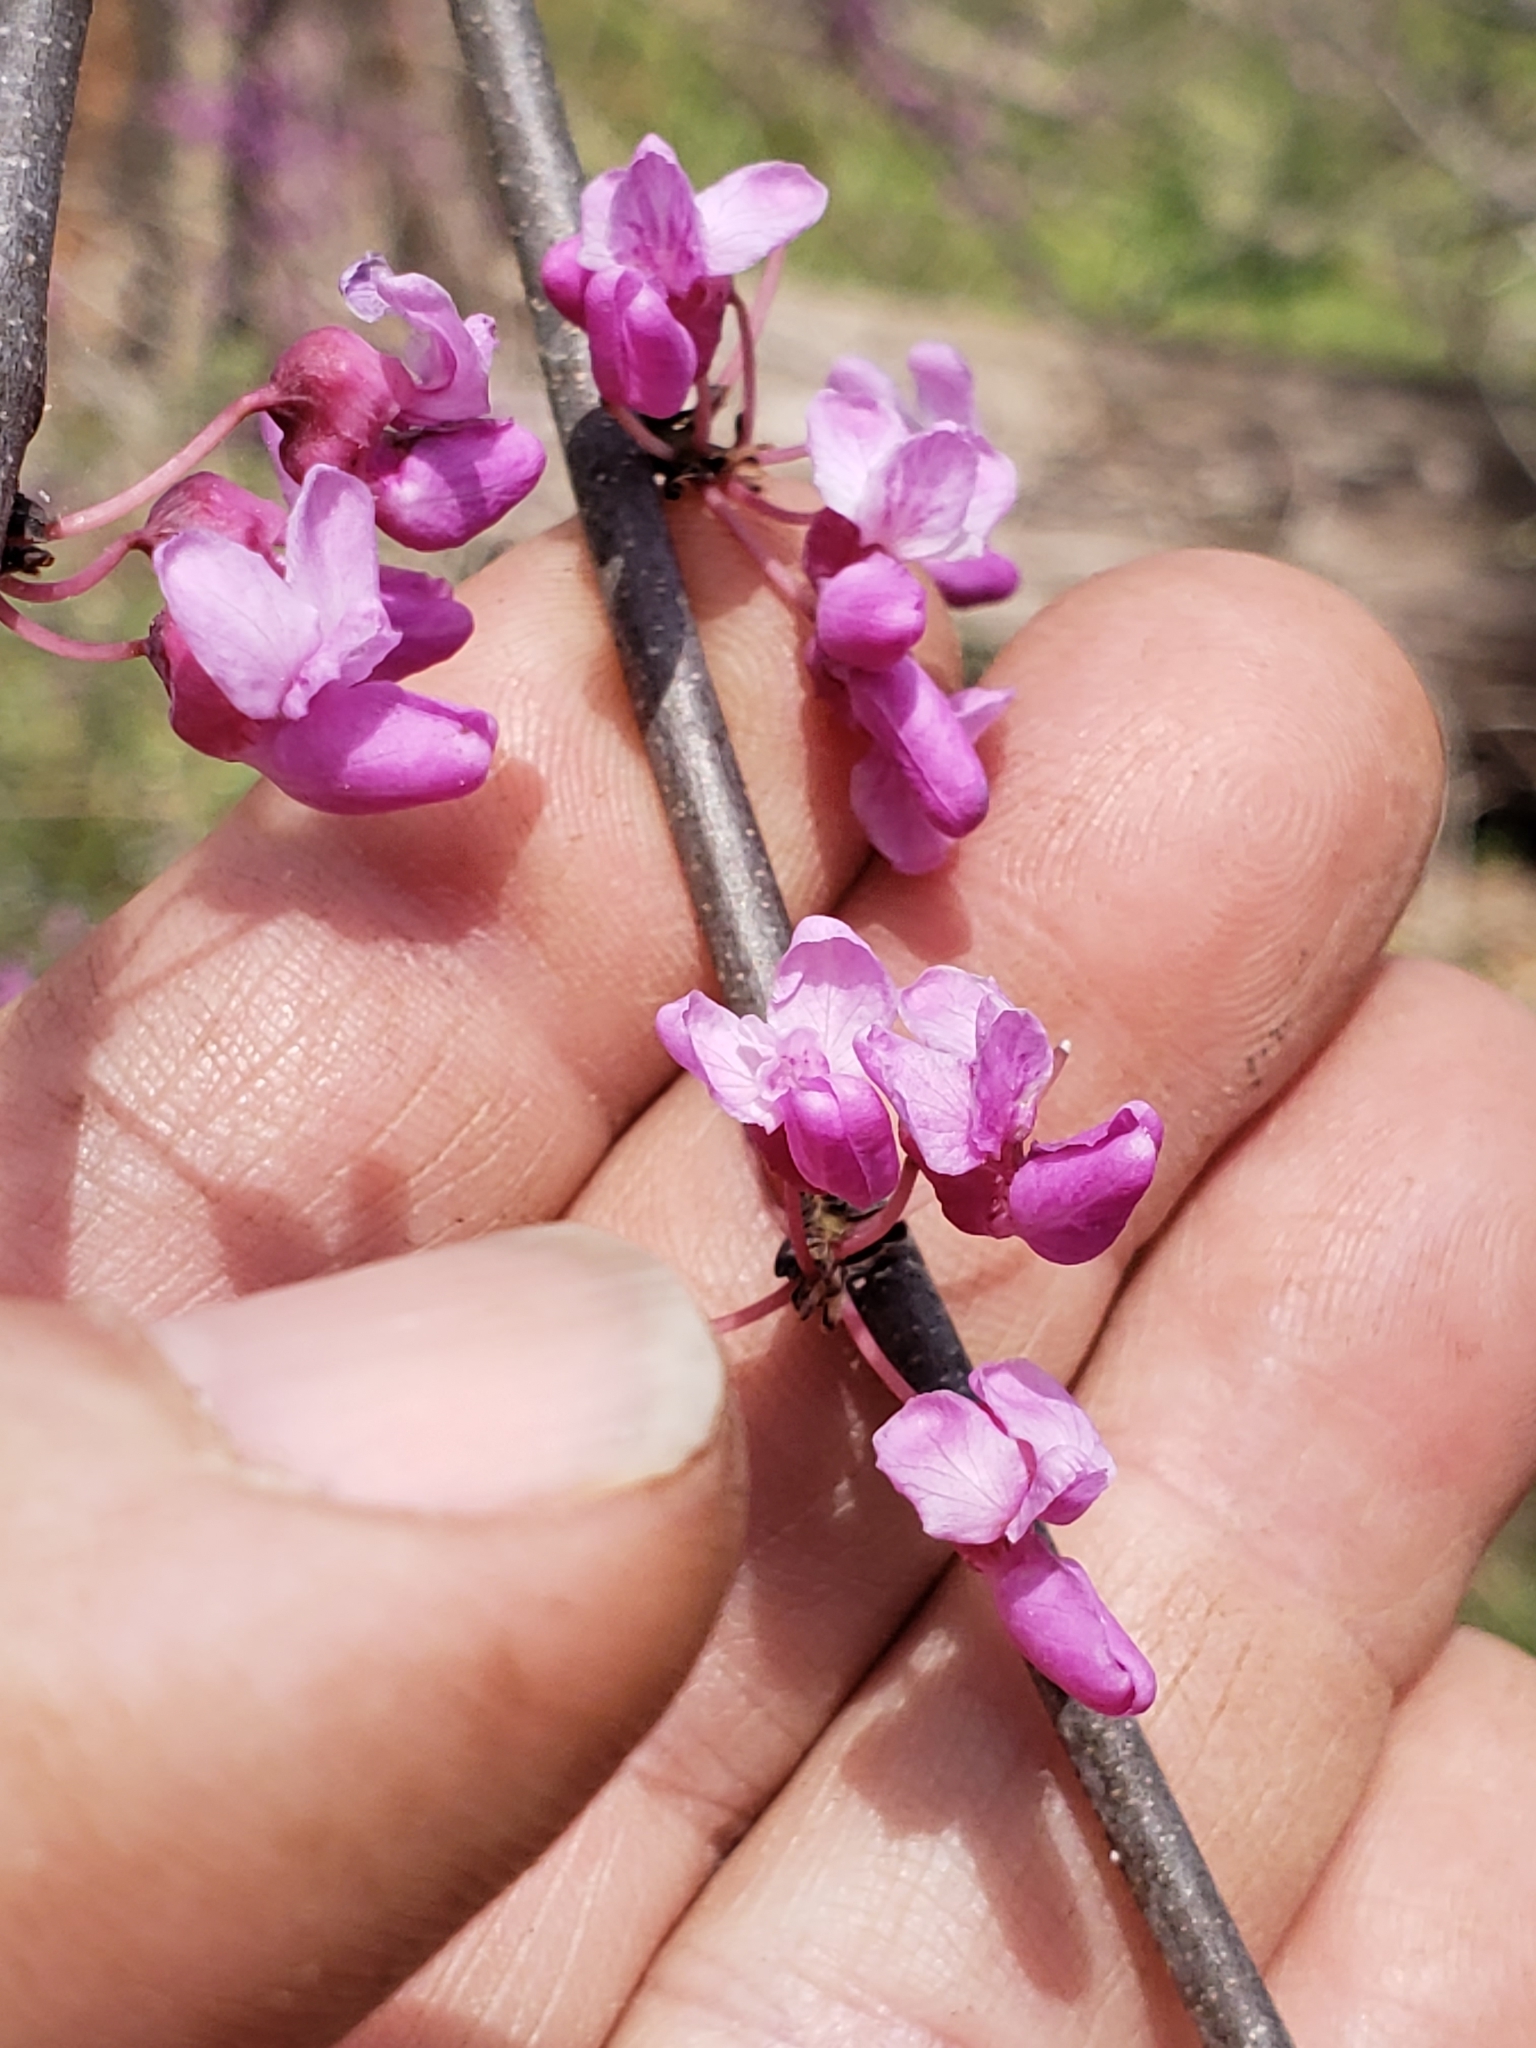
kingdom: Plantae
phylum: Tracheophyta
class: Magnoliopsida
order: Fabales
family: Fabaceae
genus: Cercis
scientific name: Cercis canadensis
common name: Eastern redbud
